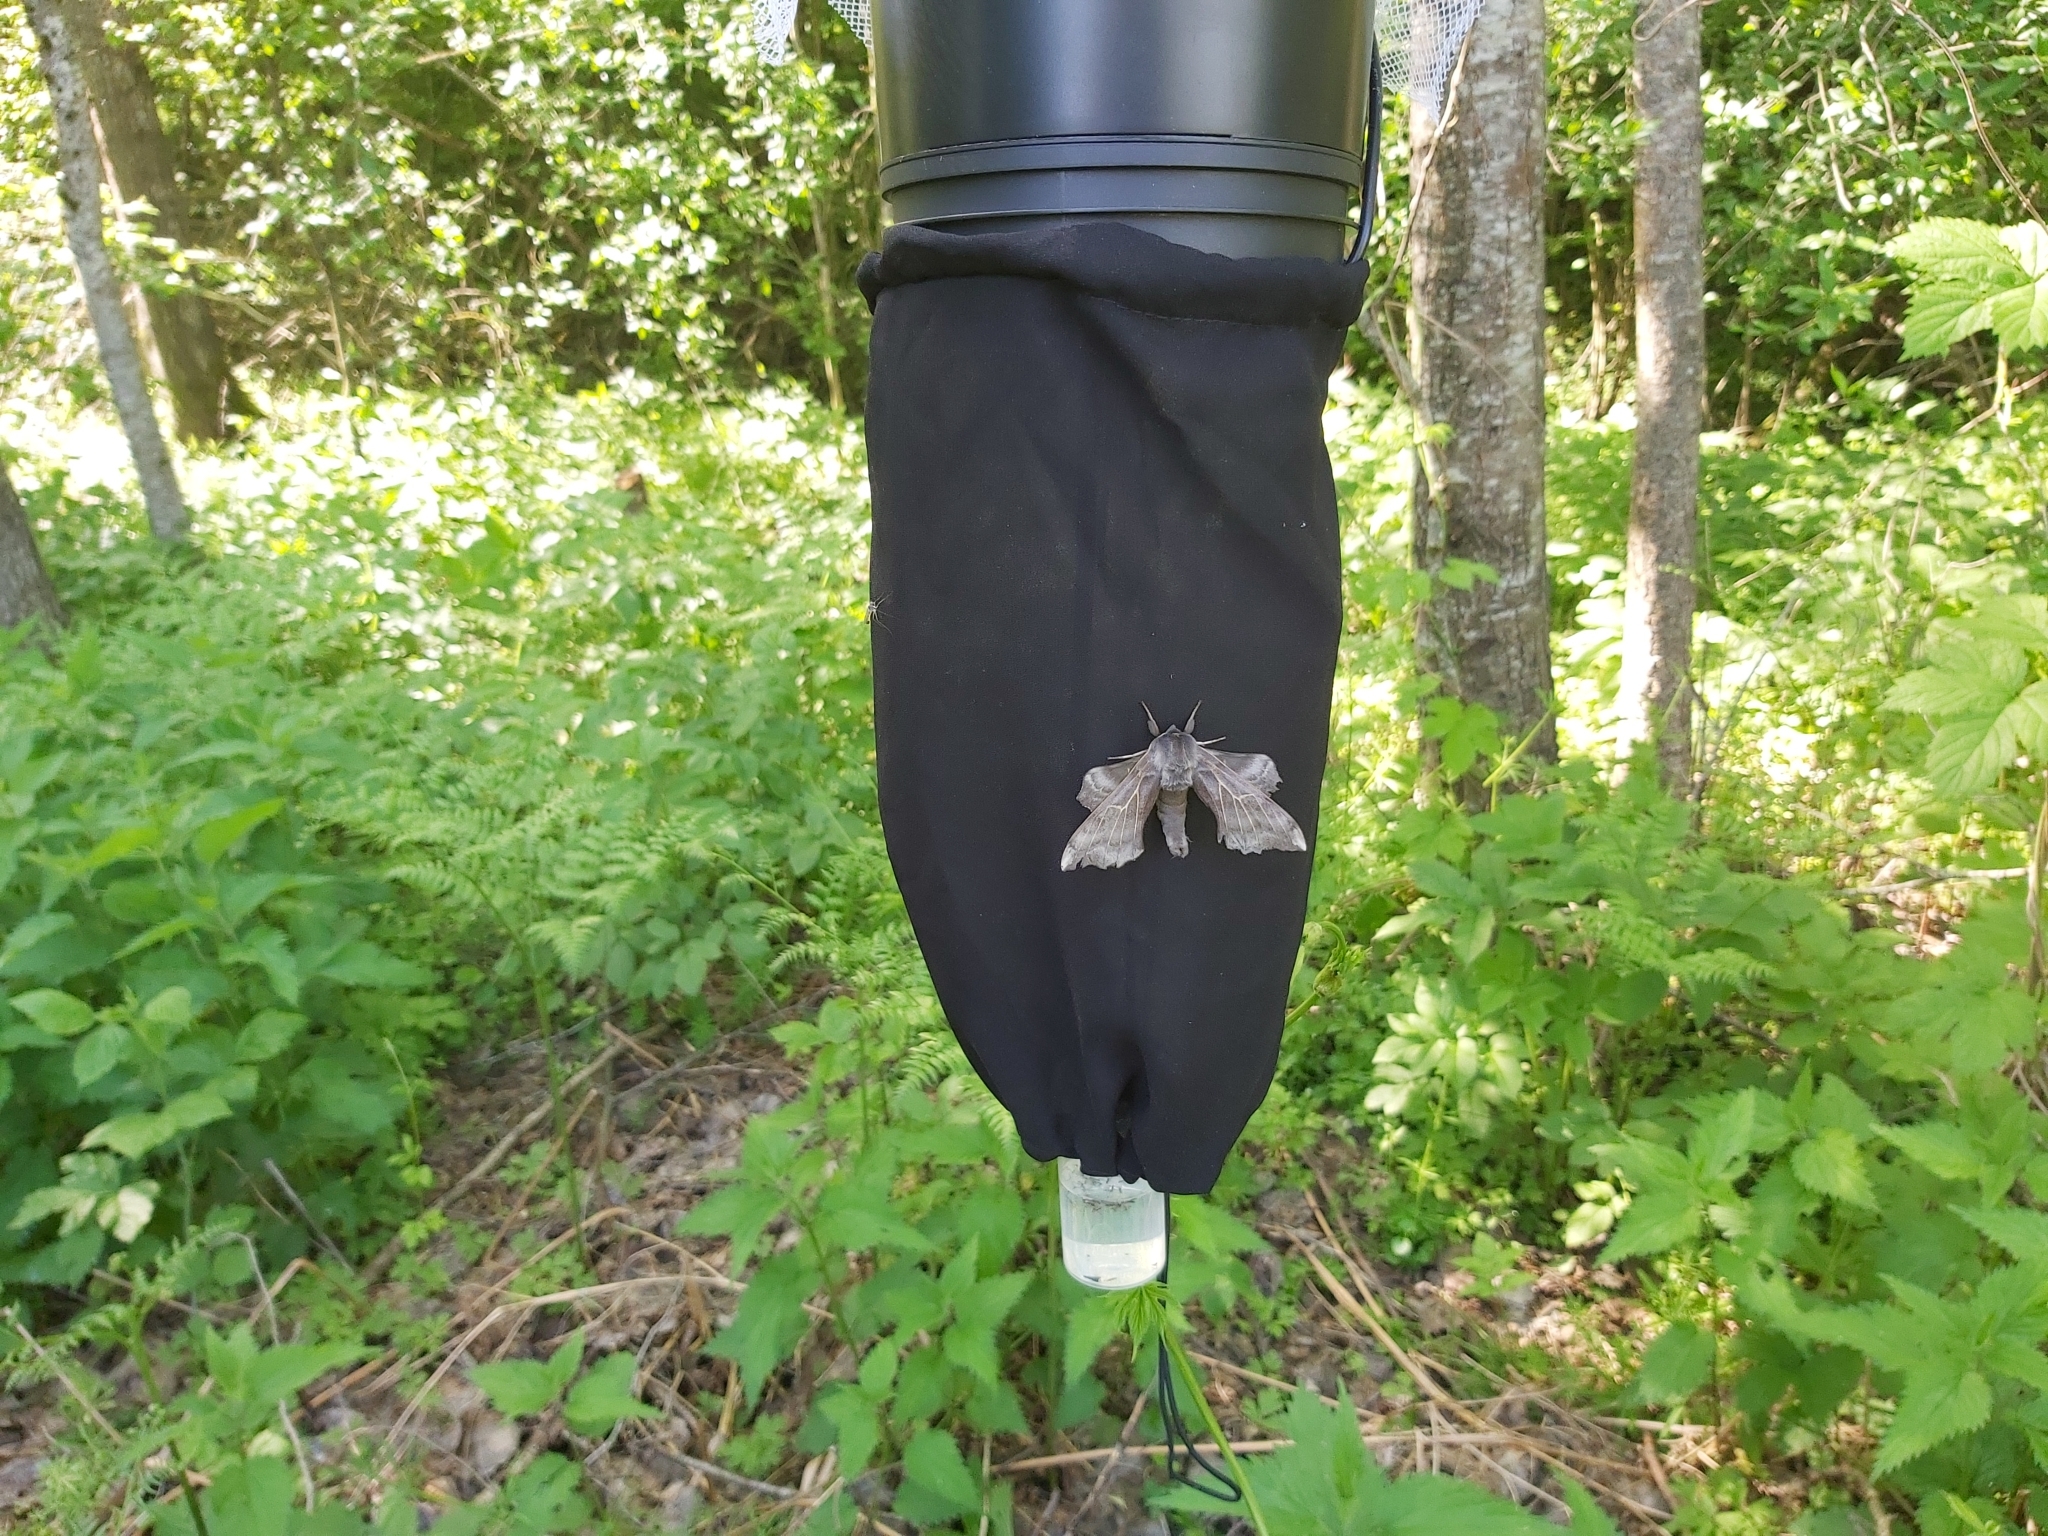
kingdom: Animalia
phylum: Arthropoda
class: Insecta
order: Lepidoptera
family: Sphingidae
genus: Laothoe
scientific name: Laothoe populi
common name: Poplar hawk-moth
